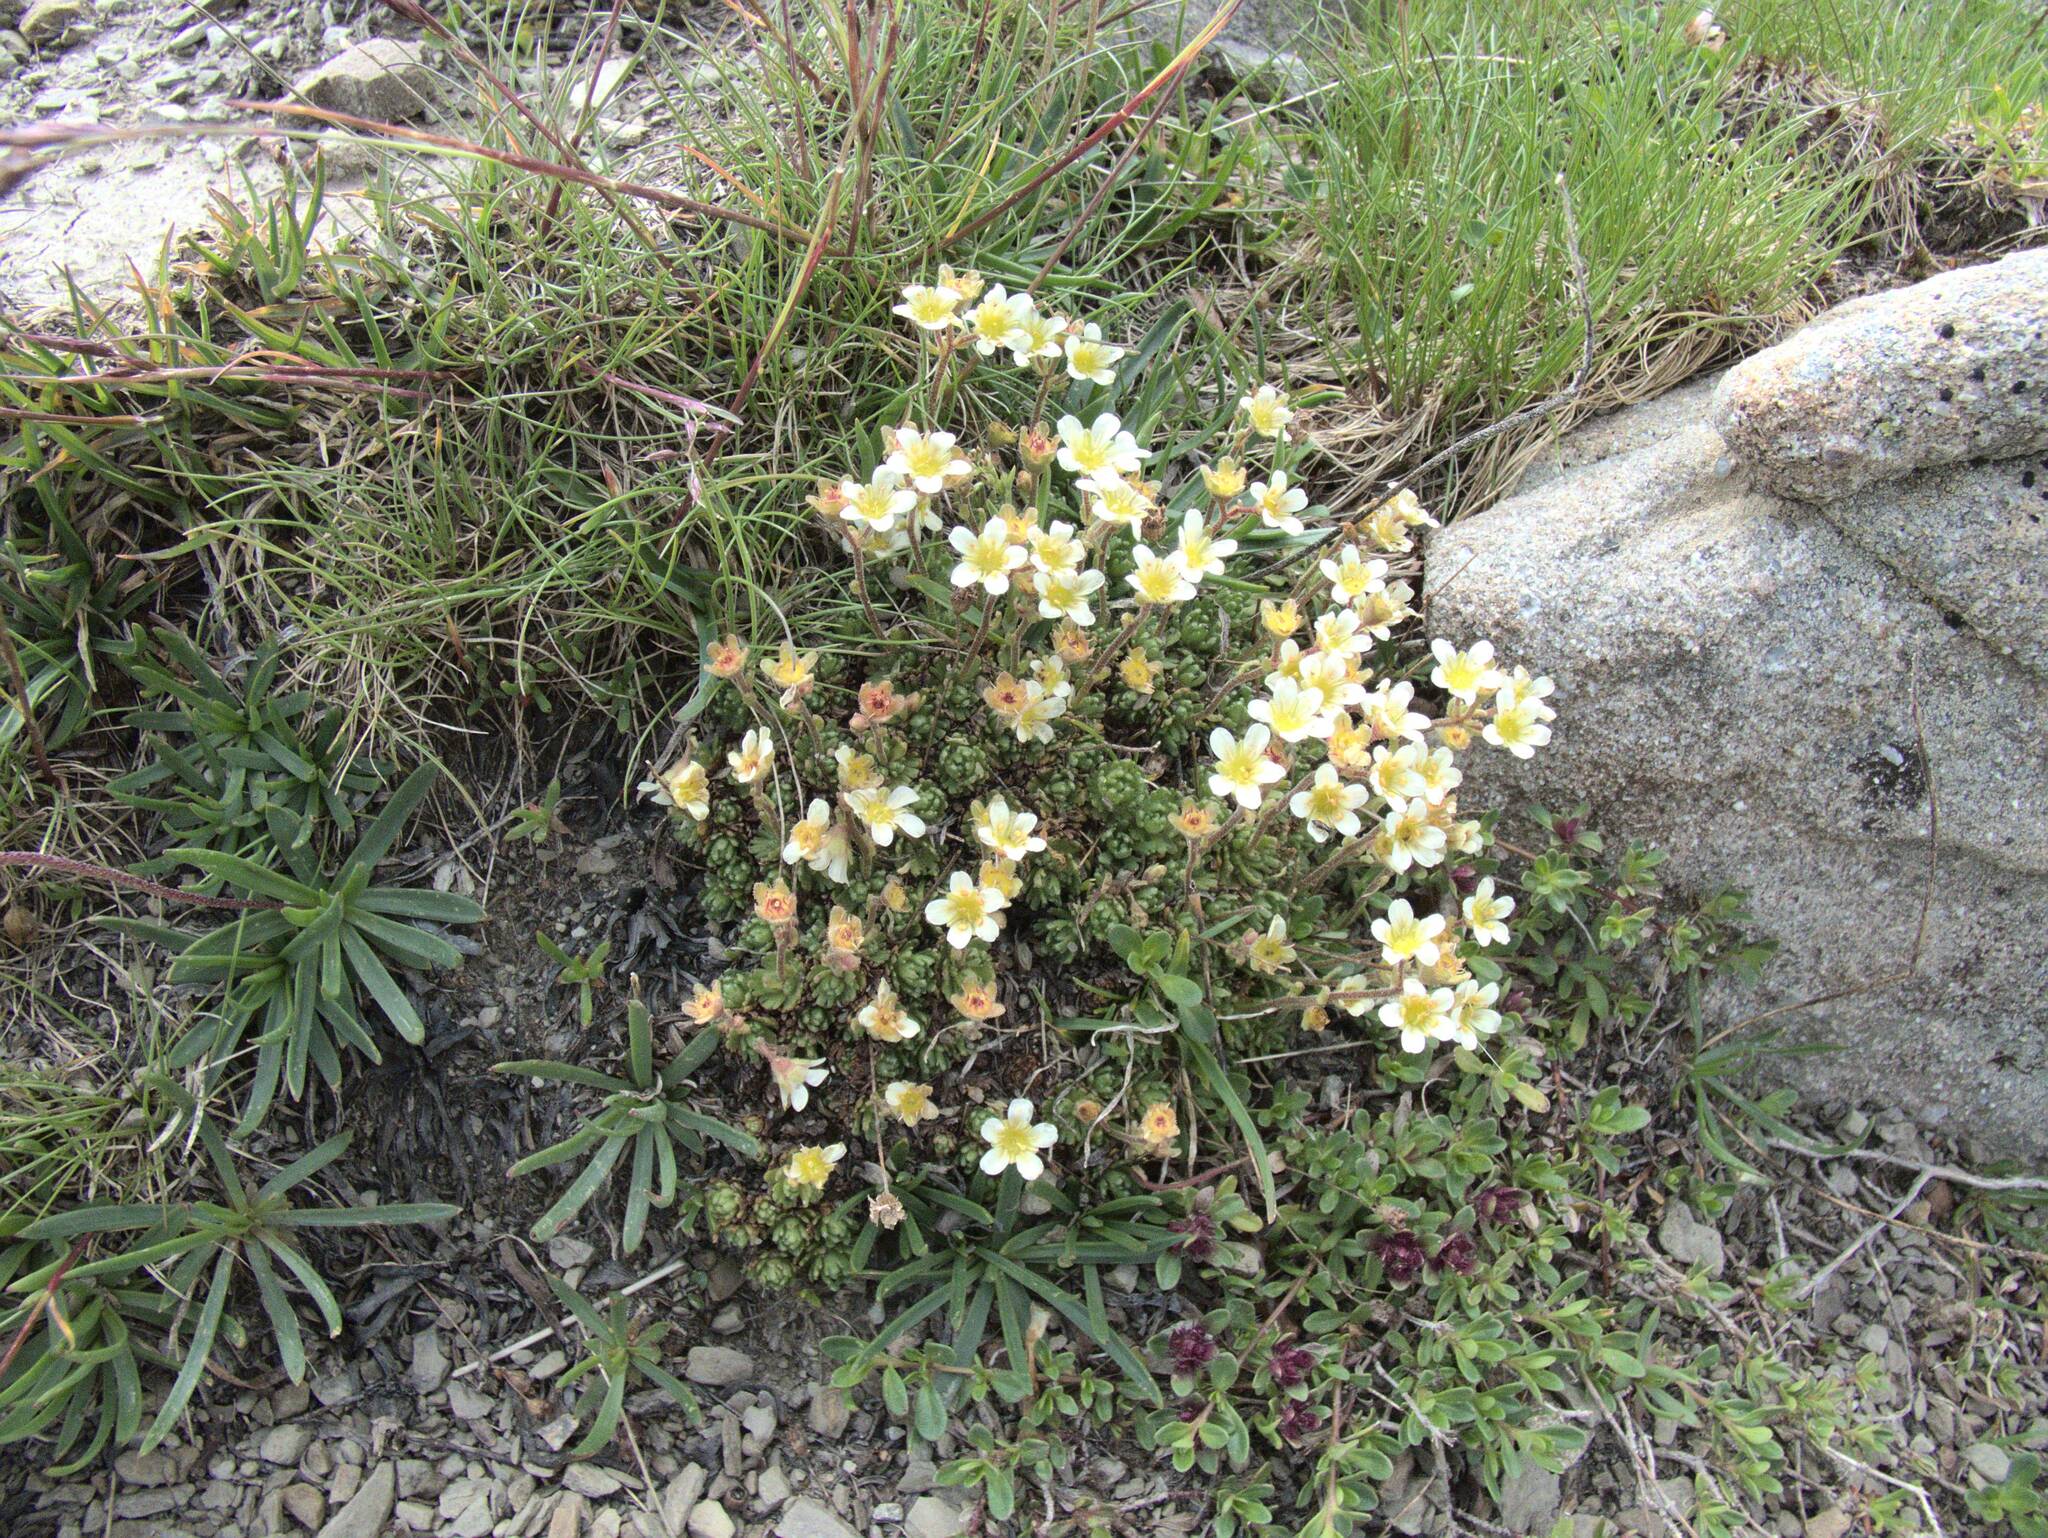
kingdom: Plantae
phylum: Tracheophyta
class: Magnoliopsida
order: Saxifragales
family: Saxifragaceae
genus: Saxifraga
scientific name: Saxifraga exarata
